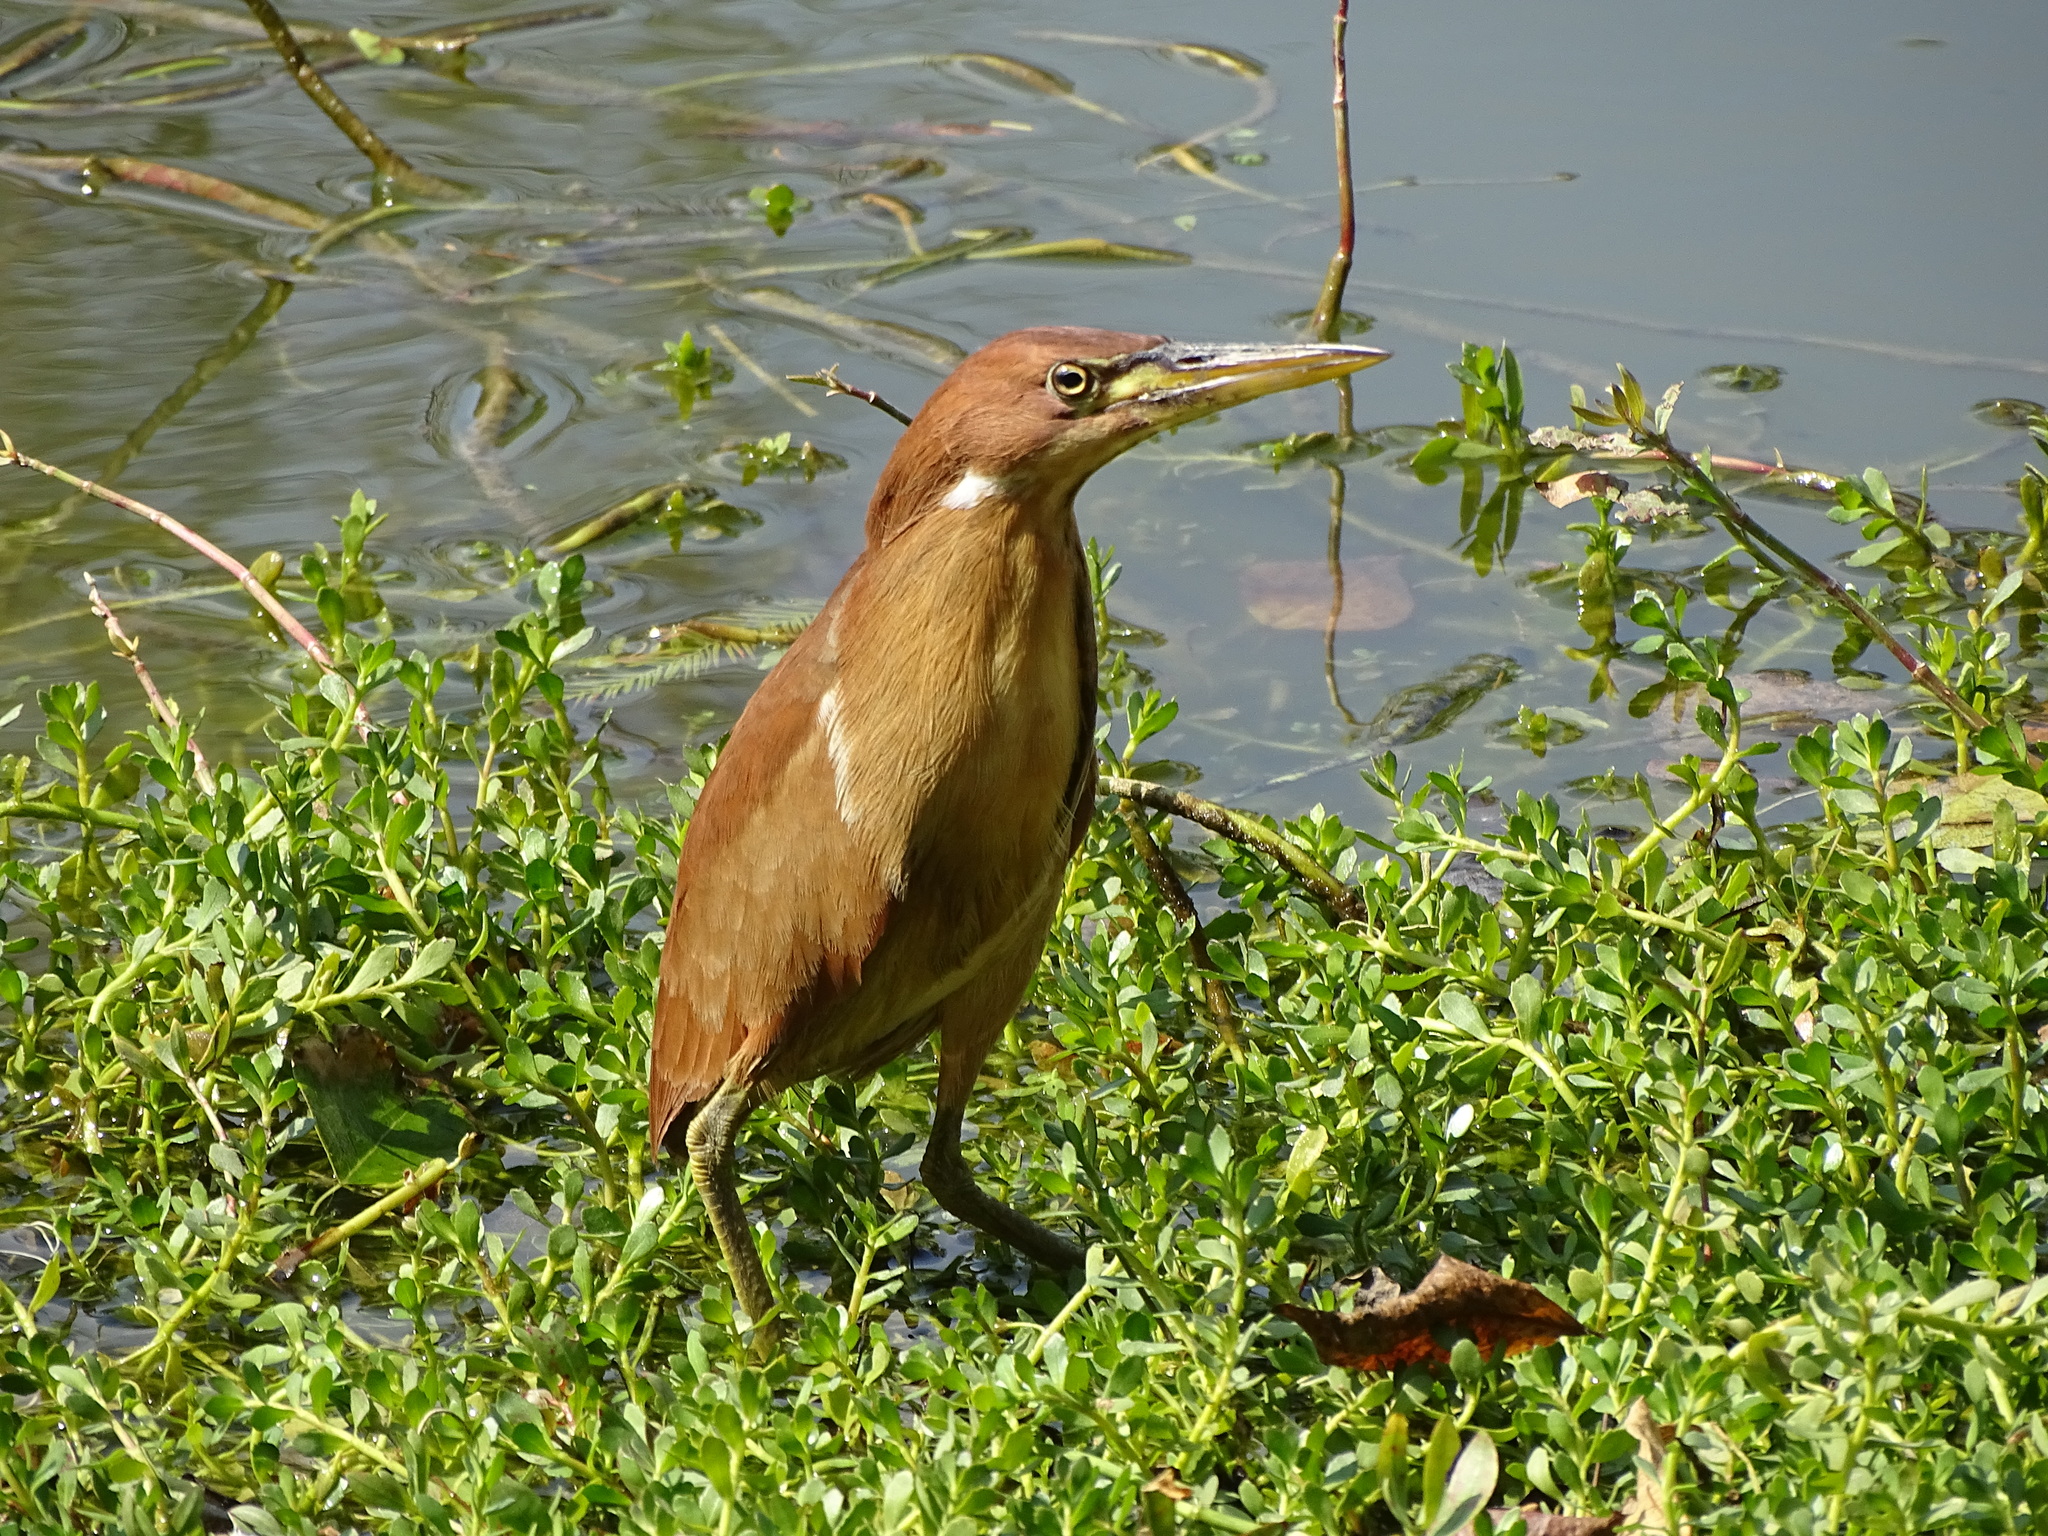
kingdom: Animalia
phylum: Chordata
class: Aves
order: Pelecaniformes
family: Ardeidae
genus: Ixobrychus
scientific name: Ixobrychus cinnamomeus
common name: Cinnamon bittern
